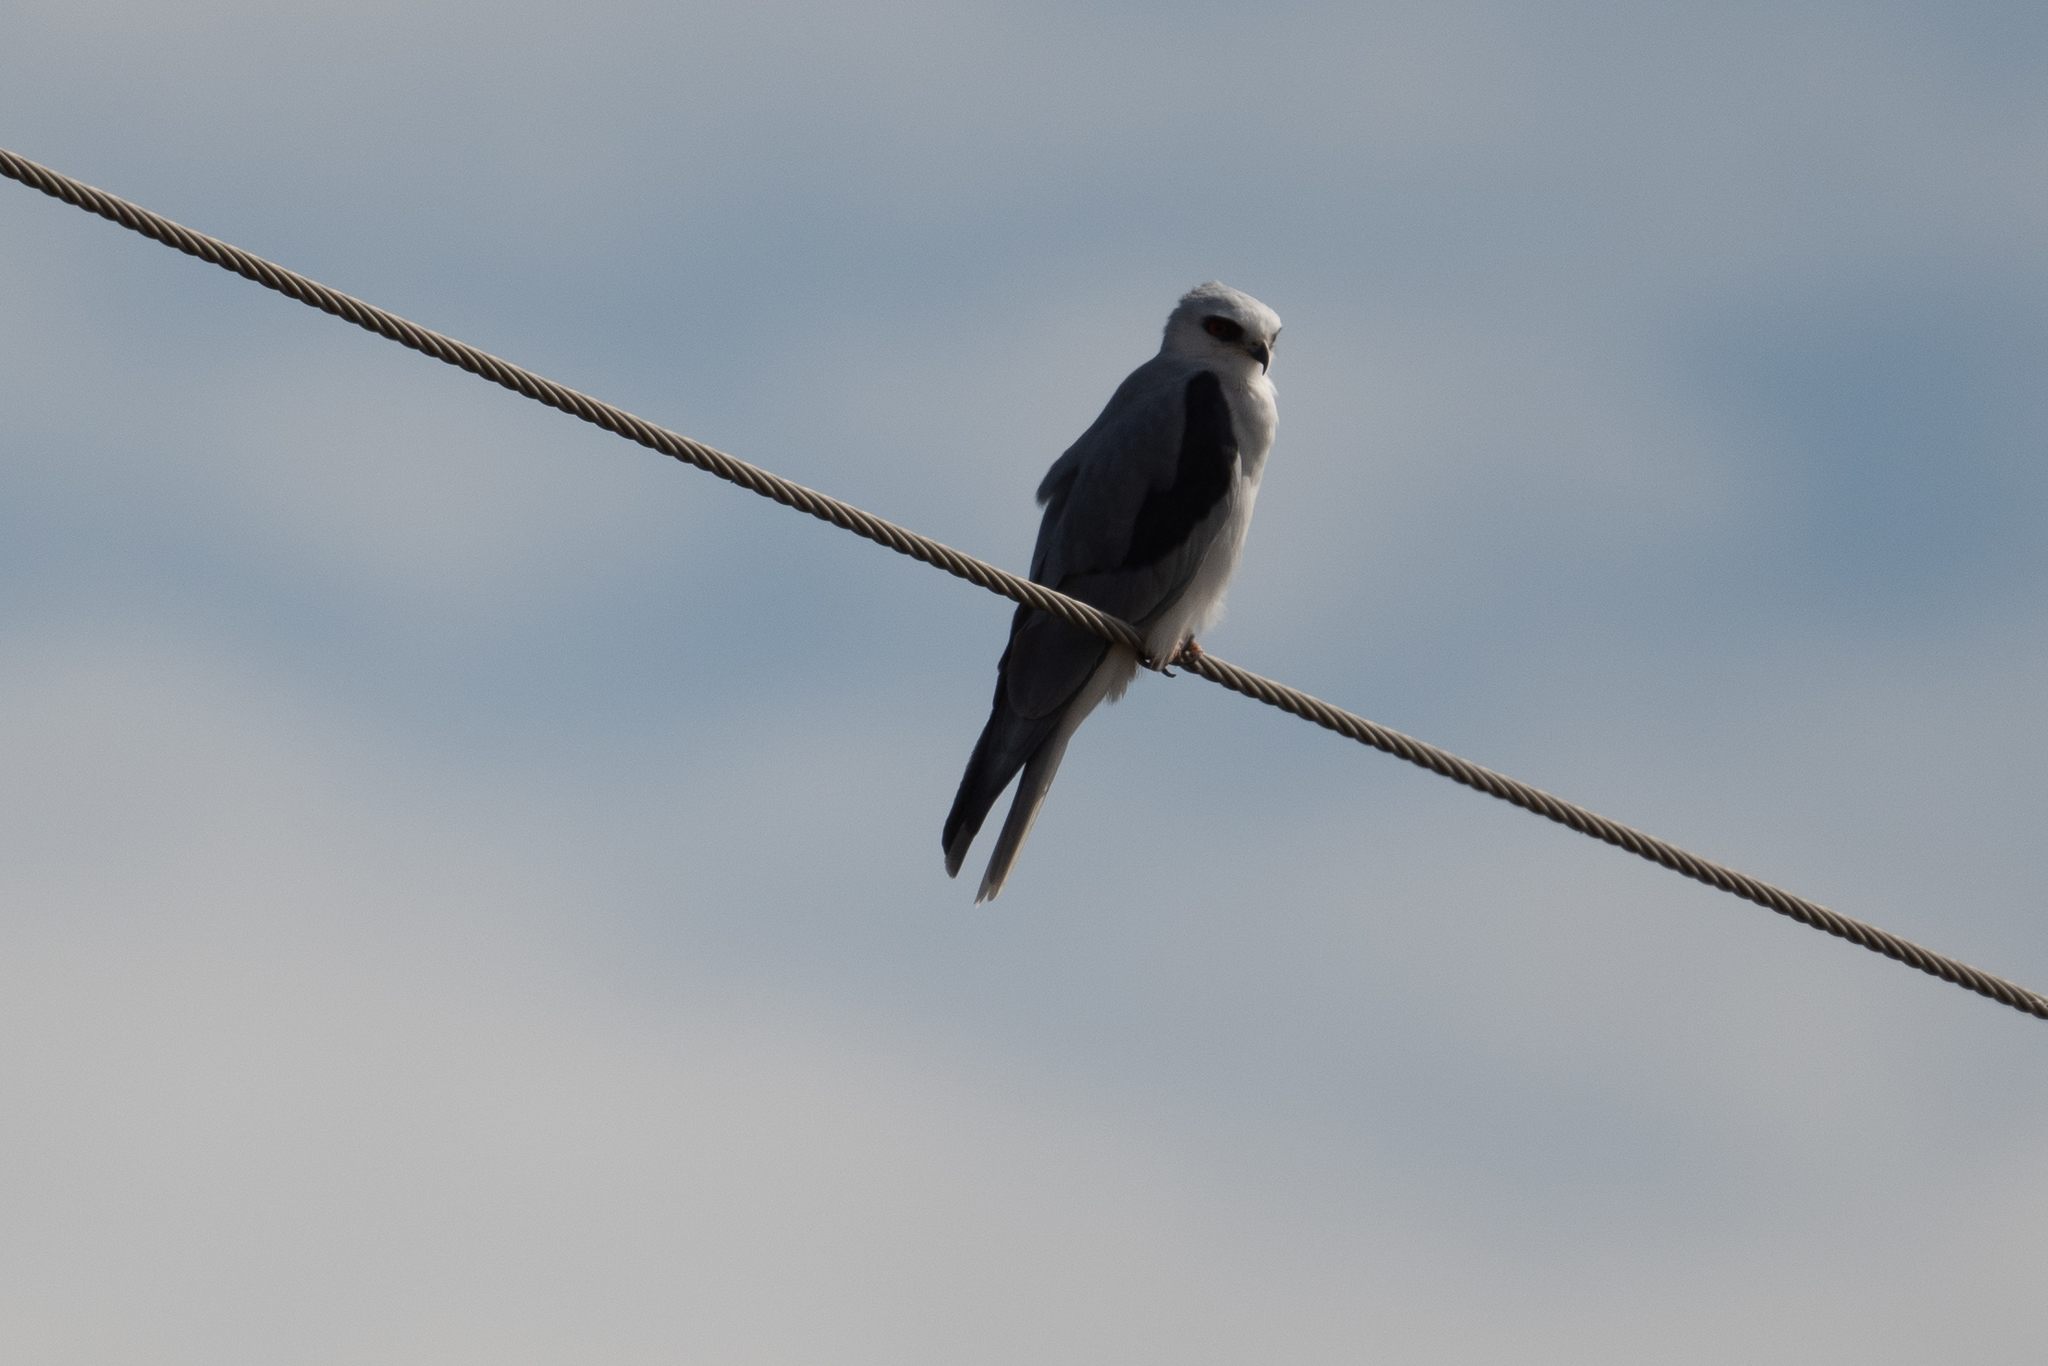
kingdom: Animalia
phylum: Chordata
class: Aves
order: Accipitriformes
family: Accipitridae
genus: Elanus
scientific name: Elanus leucurus
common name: White-tailed kite
